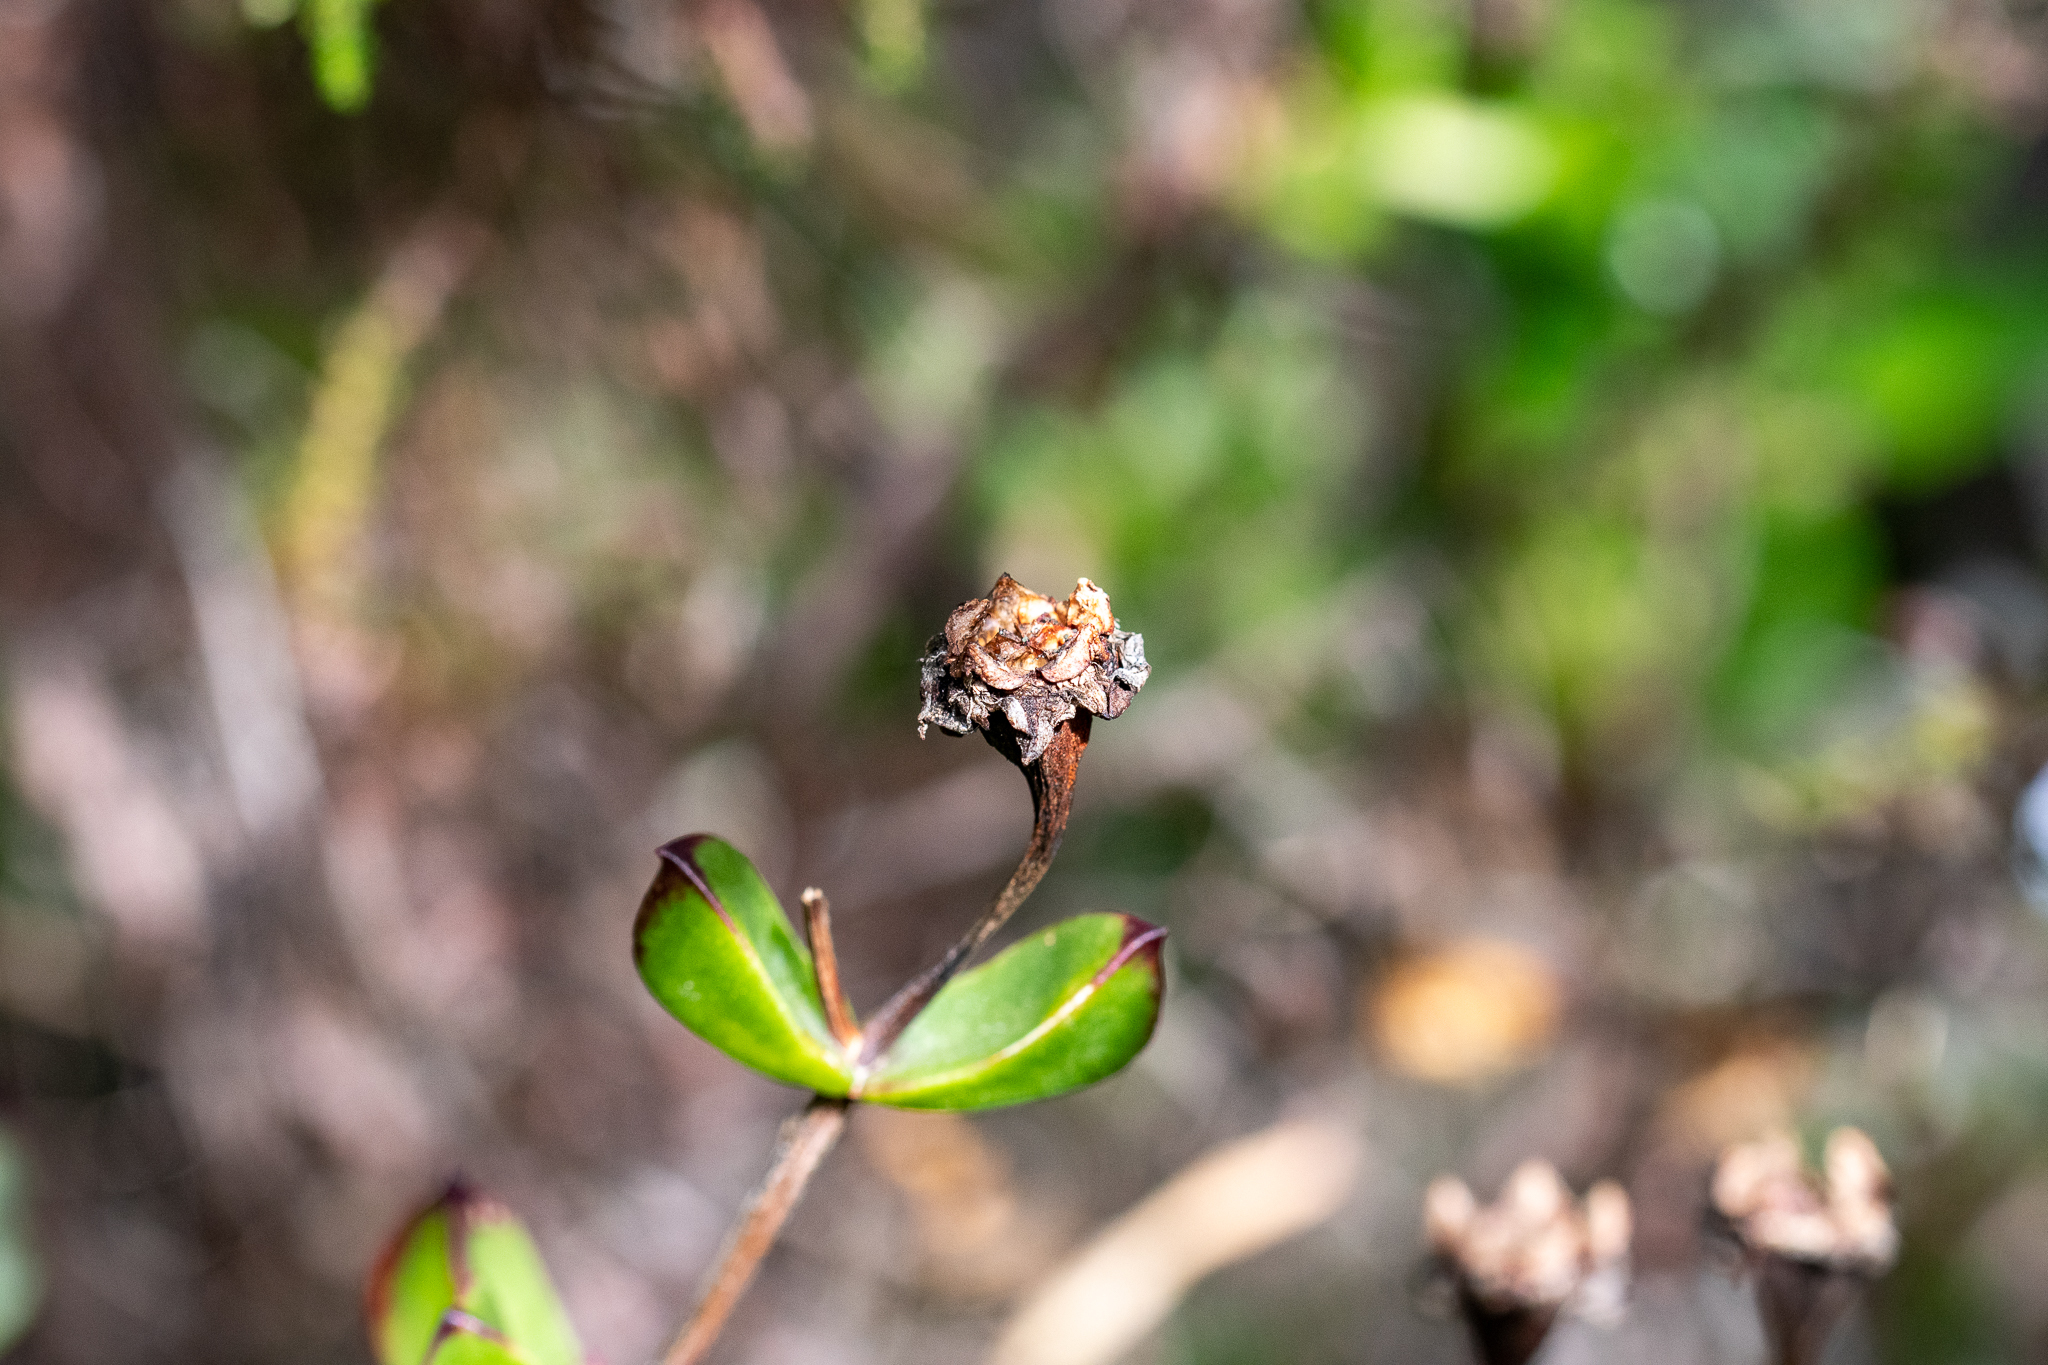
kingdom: Plantae
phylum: Tracheophyta
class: Magnoliopsida
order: Caryophyllales
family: Aizoaceae
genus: Erepsia
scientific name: Erepsia inclaudens
